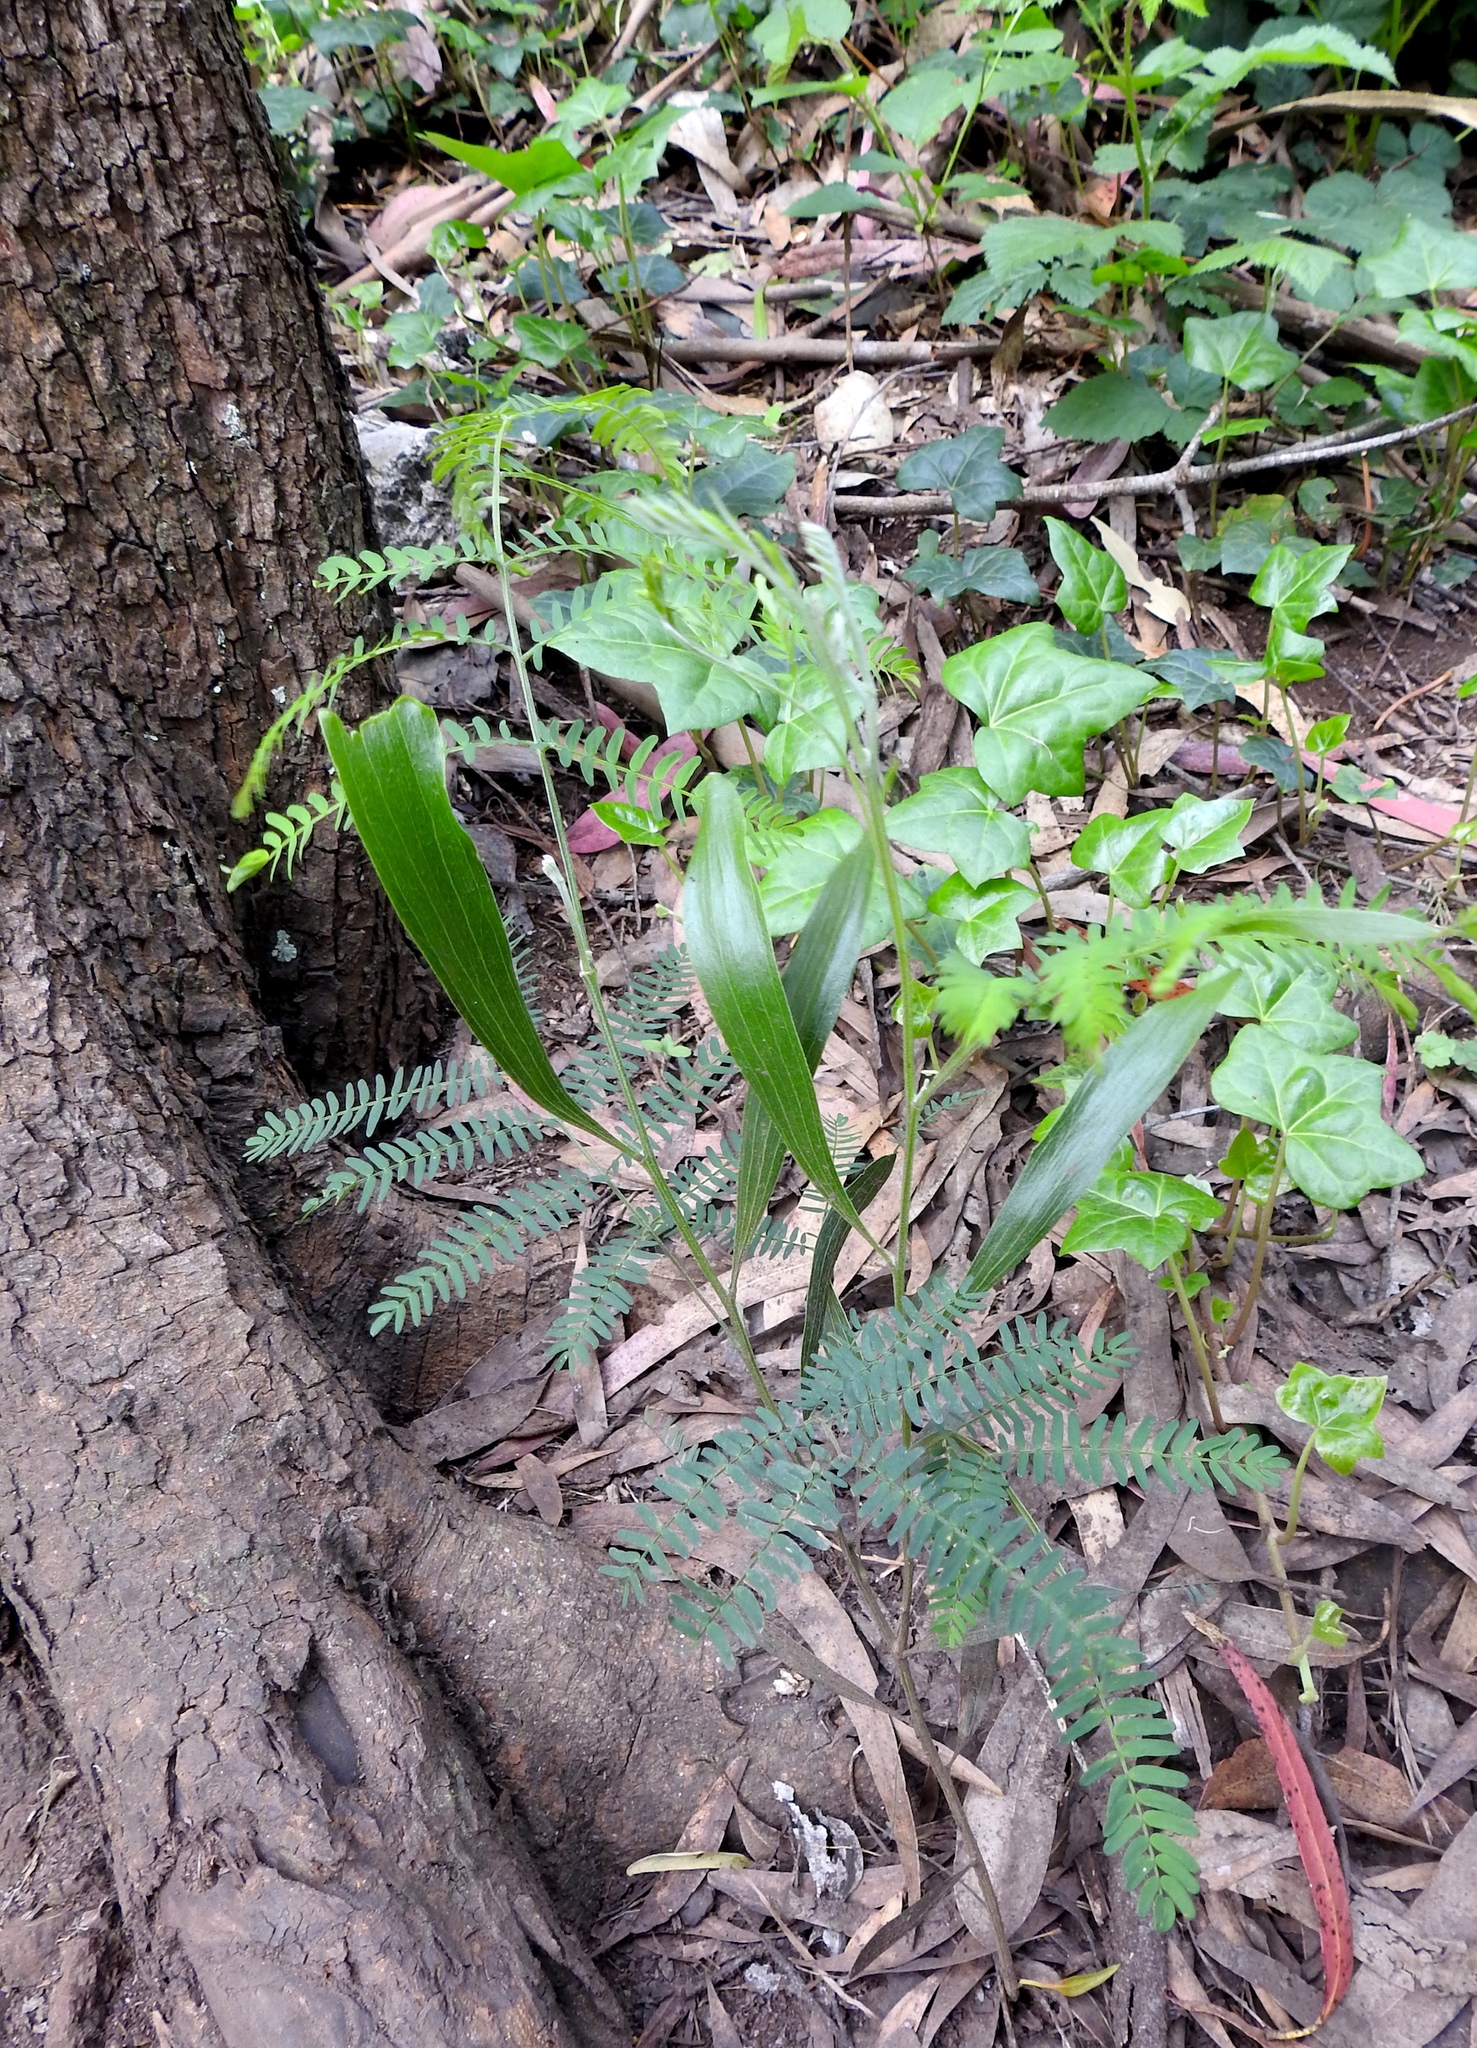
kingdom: Plantae
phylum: Tracheophyta
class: Magnoliopsida
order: Fabales
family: Fabaceae
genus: Acacia
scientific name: Acacia melanoxylon
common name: Blackwood
